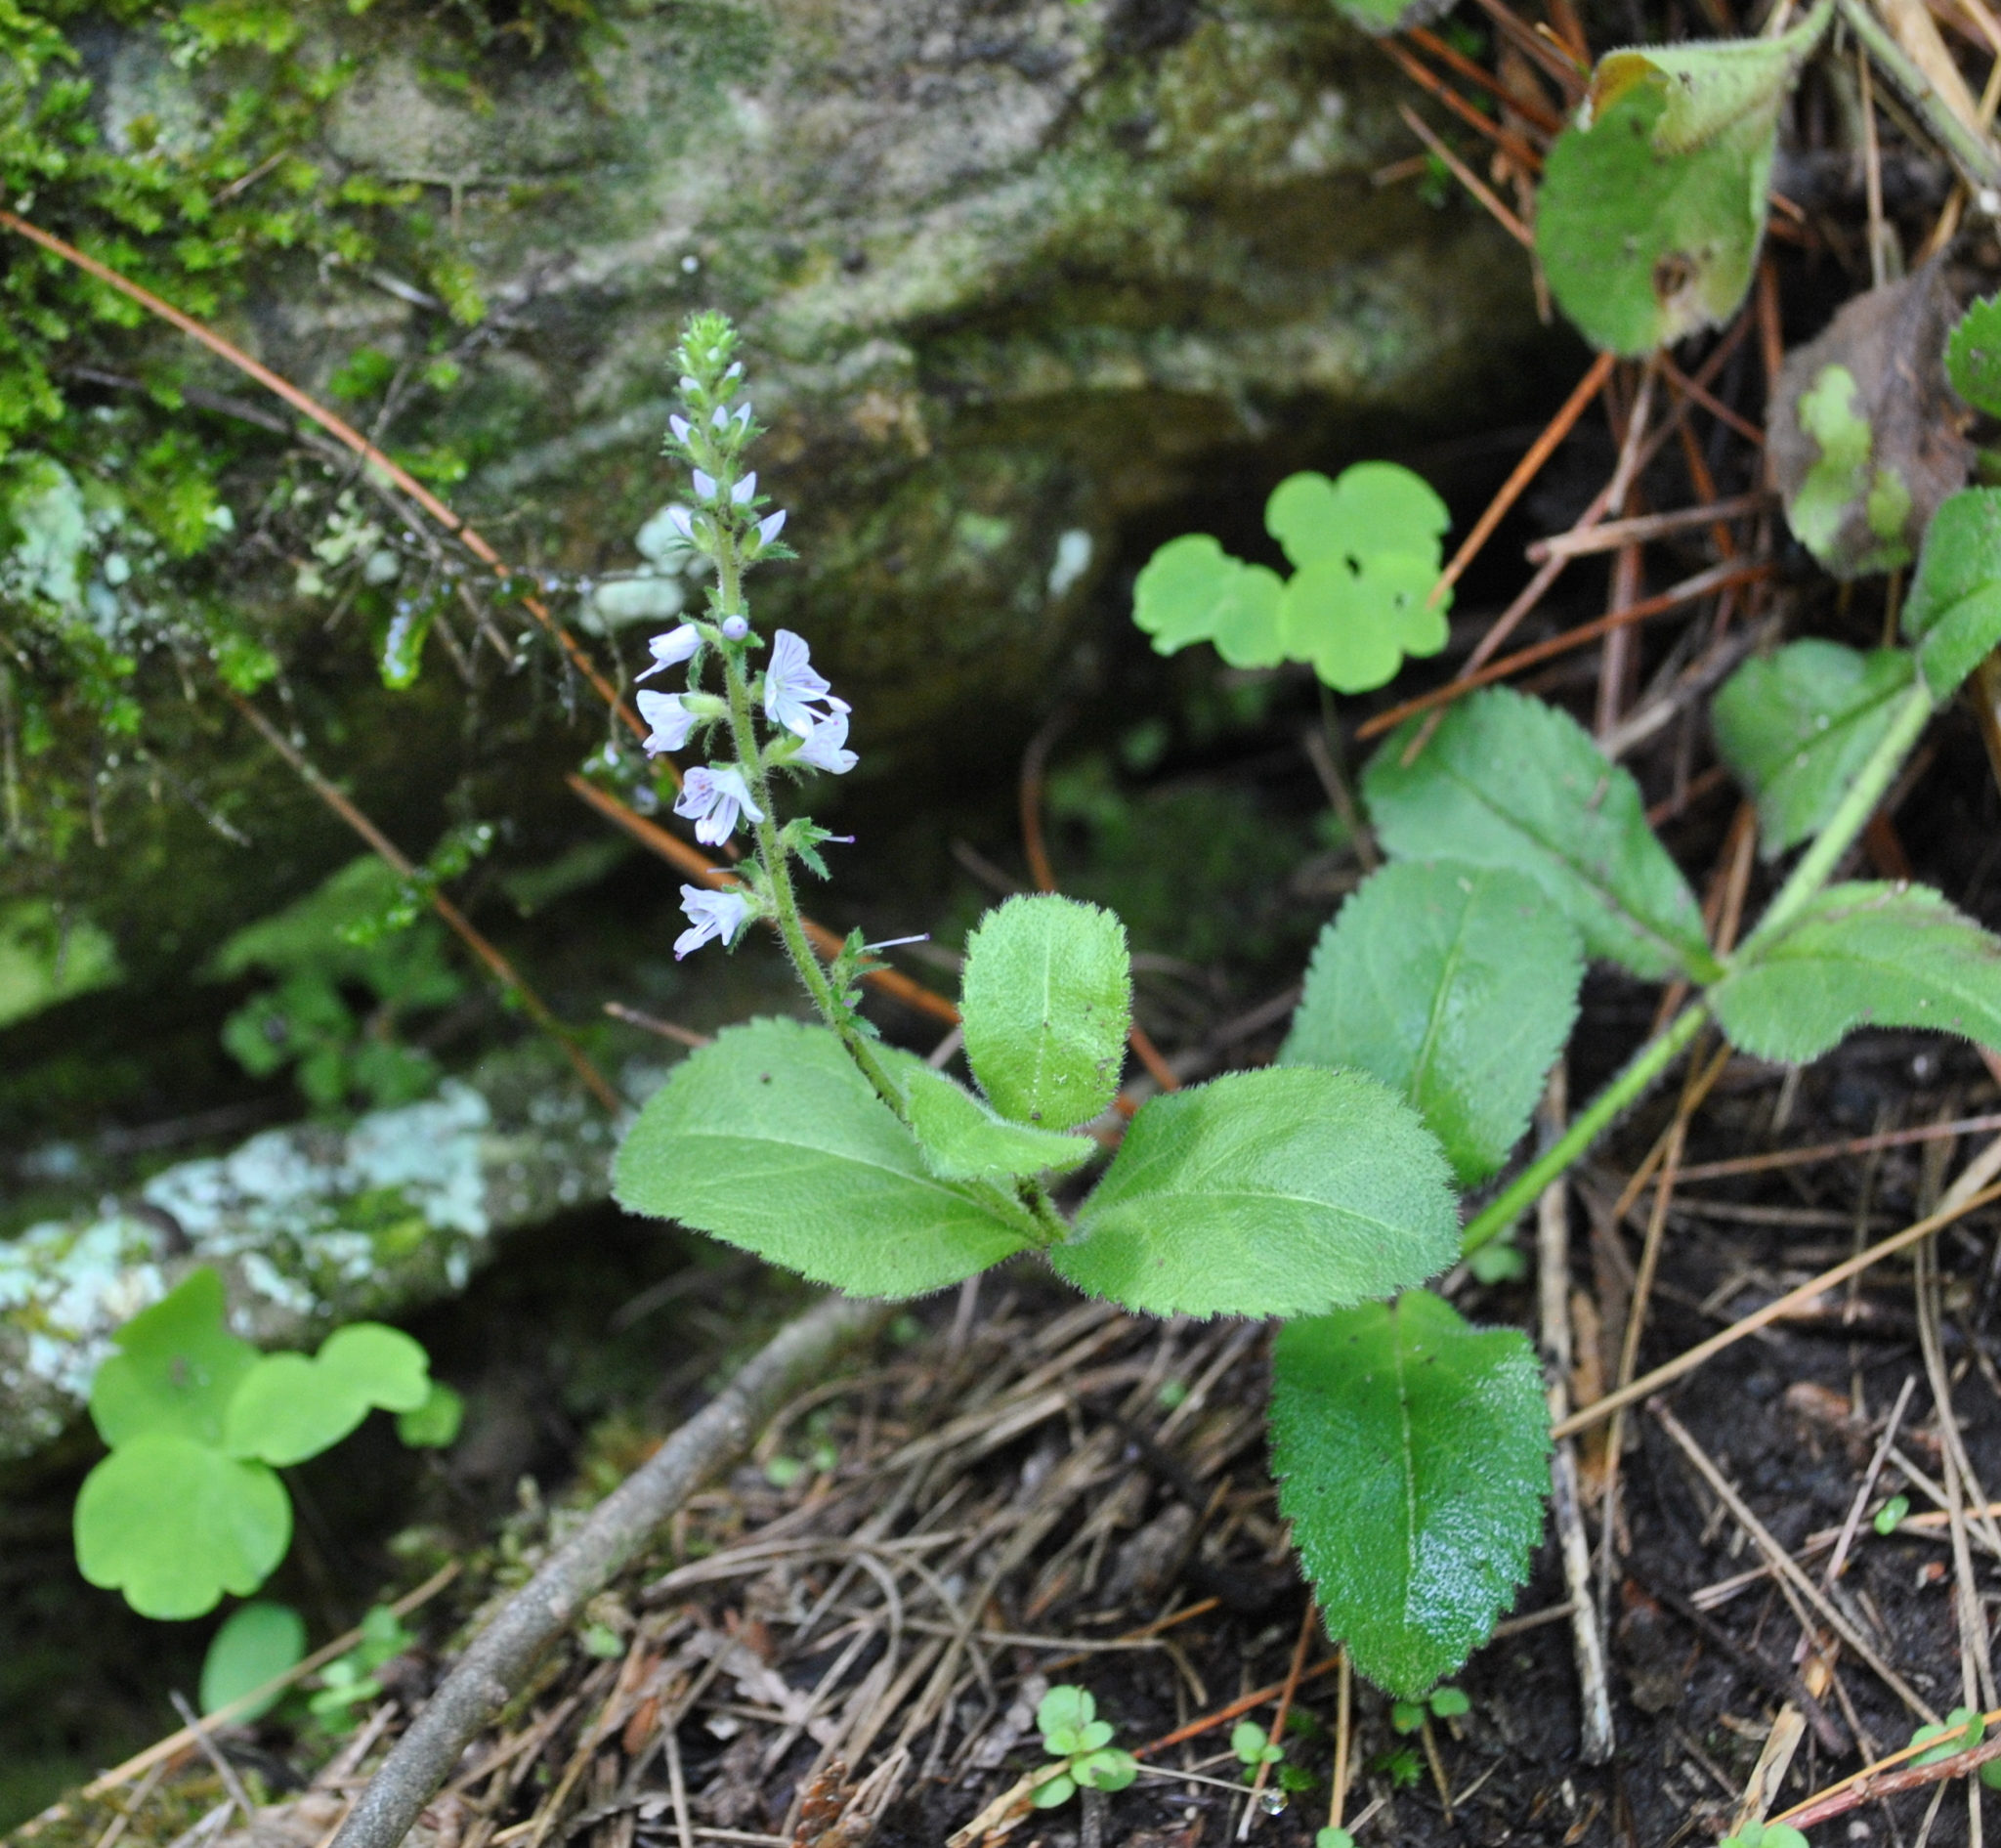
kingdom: Plantae
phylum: Tracheophyta
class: Magnoliopsida
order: Lamiales
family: Plantaginaceae
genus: Veronica
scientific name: Veronica officinalis
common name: Common speedwell
